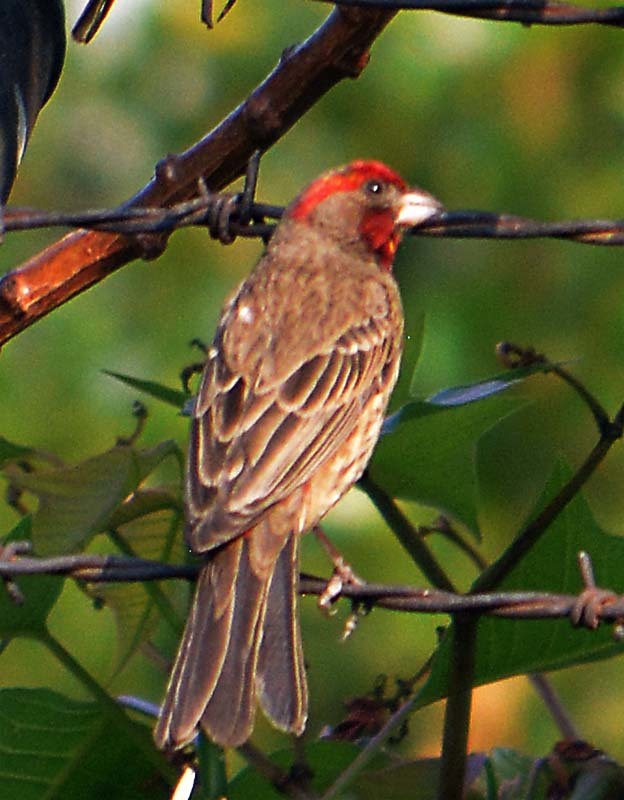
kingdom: Animalia
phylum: Chordata
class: Aves
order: Passeriformes
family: Fringillidae
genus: Haemorhous
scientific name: Haemorhous mexicanus
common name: House finch
